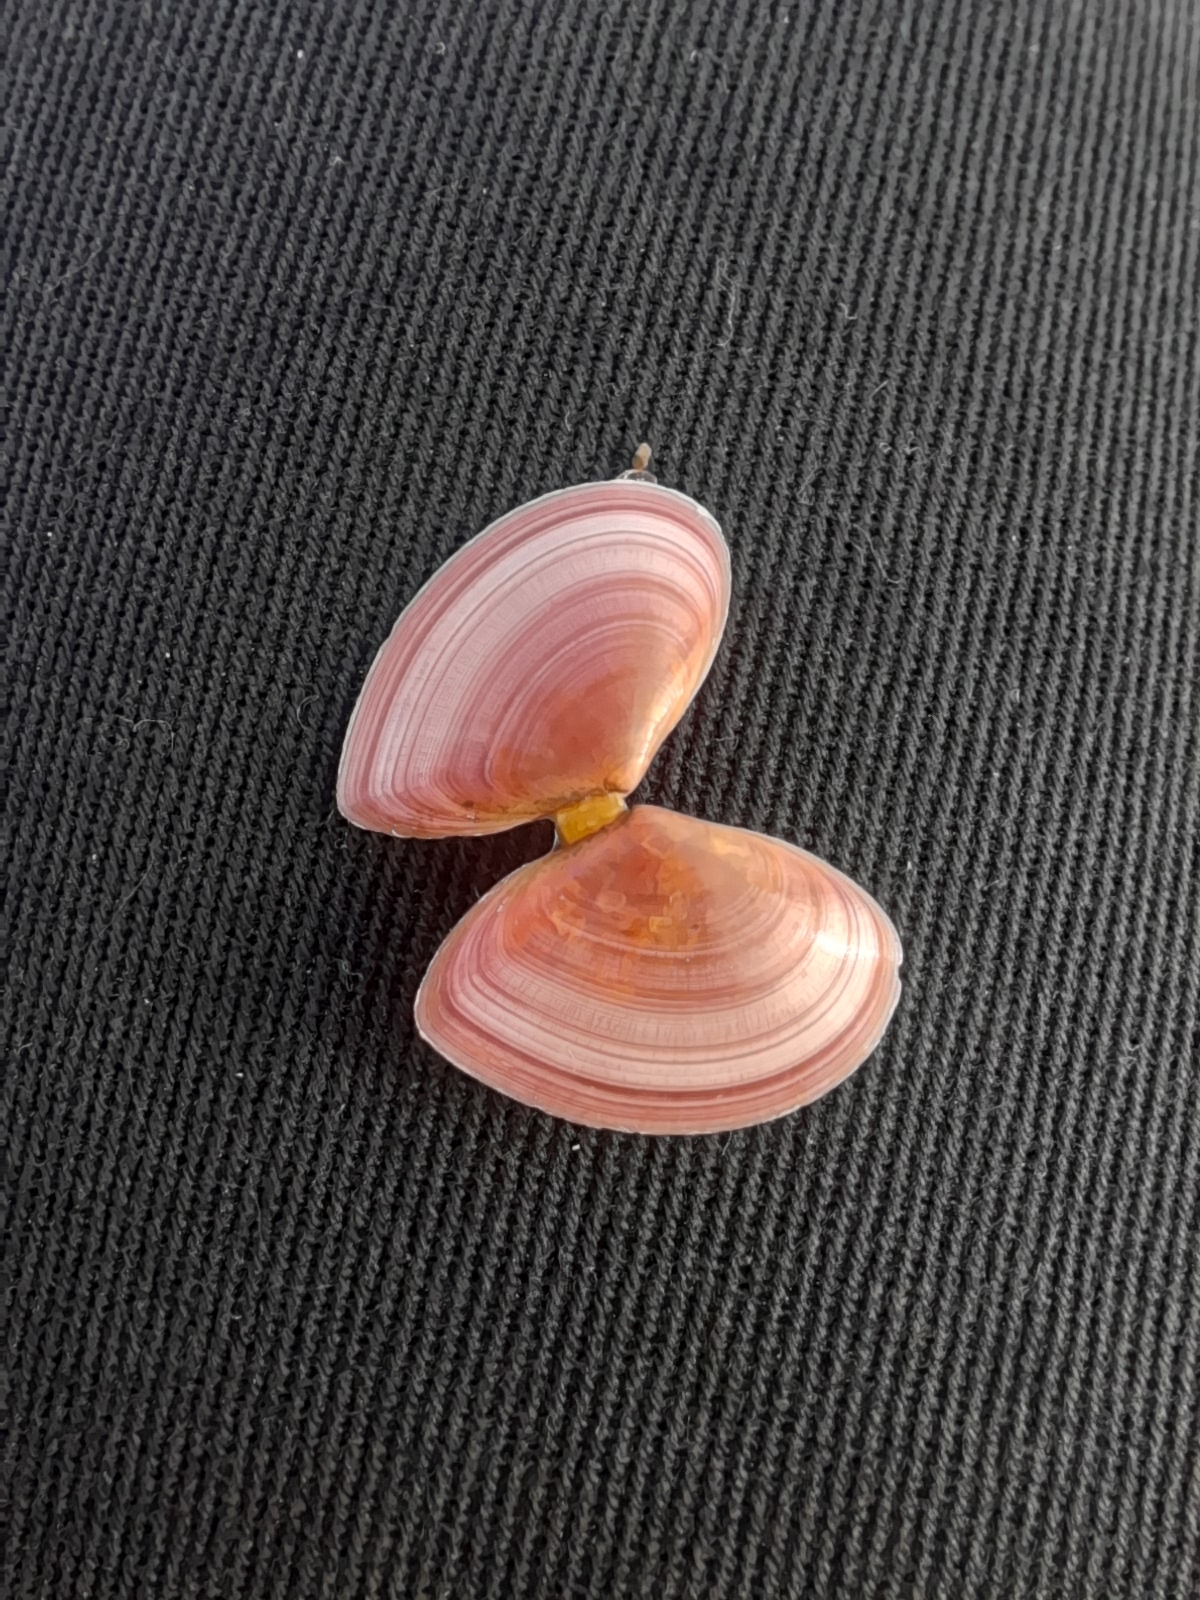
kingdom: Animalia
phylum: Mollusca
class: Bivalvia
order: Cardiida
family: Tellinidae
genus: Macomangulus
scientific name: Macomangulus tenuis
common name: Thin tellin
